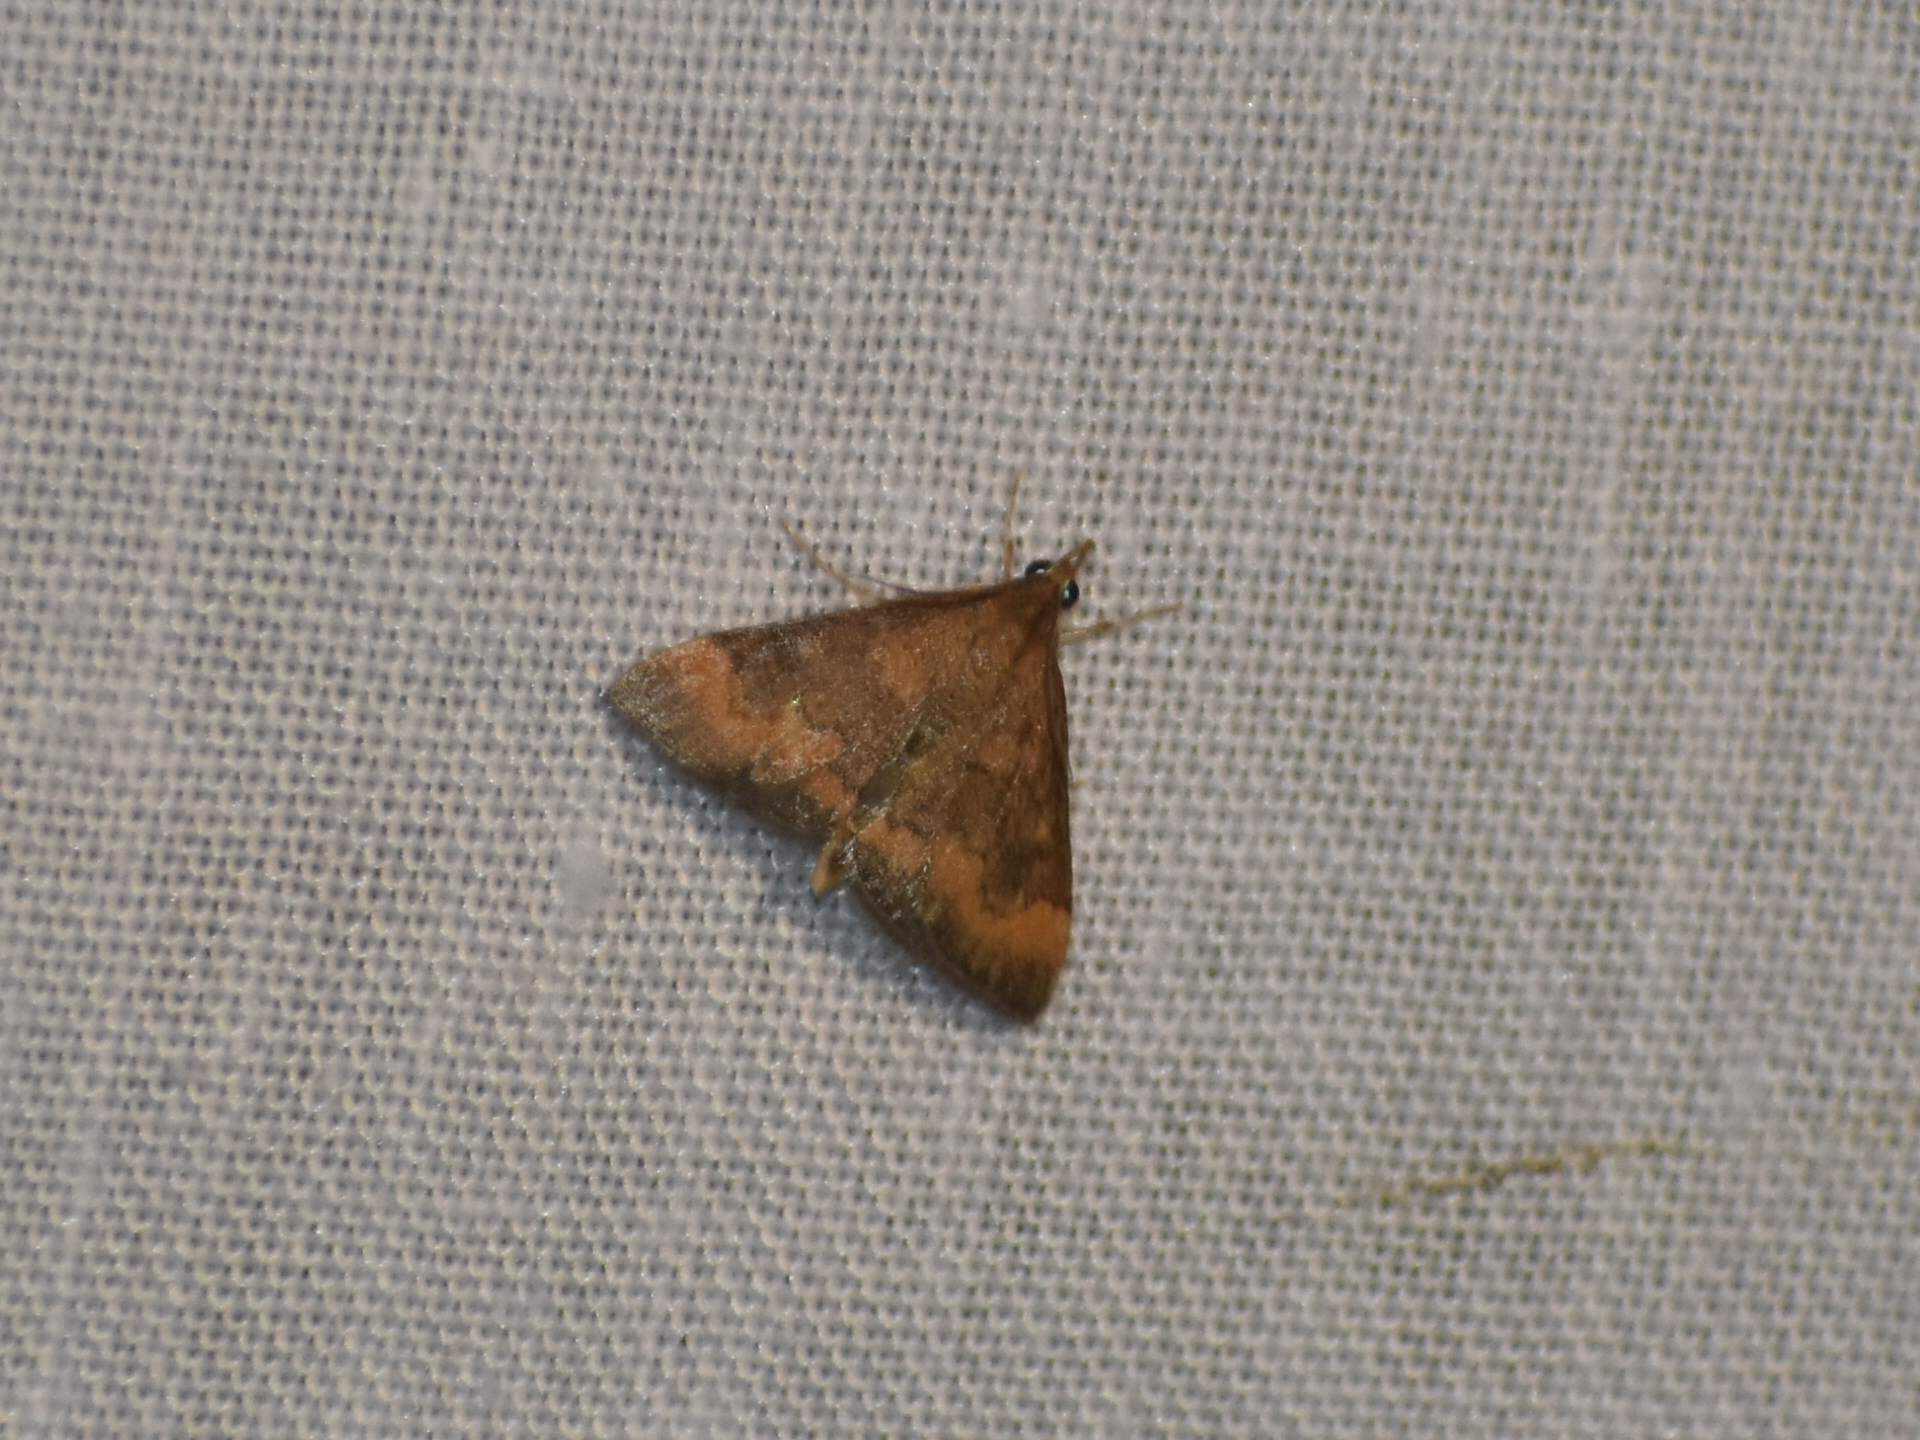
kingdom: Animalia
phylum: Arthropoda
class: Insecta
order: Lepidoptera
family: Crambidae
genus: Pyrausta
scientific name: Pyrausta rubricalis
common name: Variable reddish pyrausta
